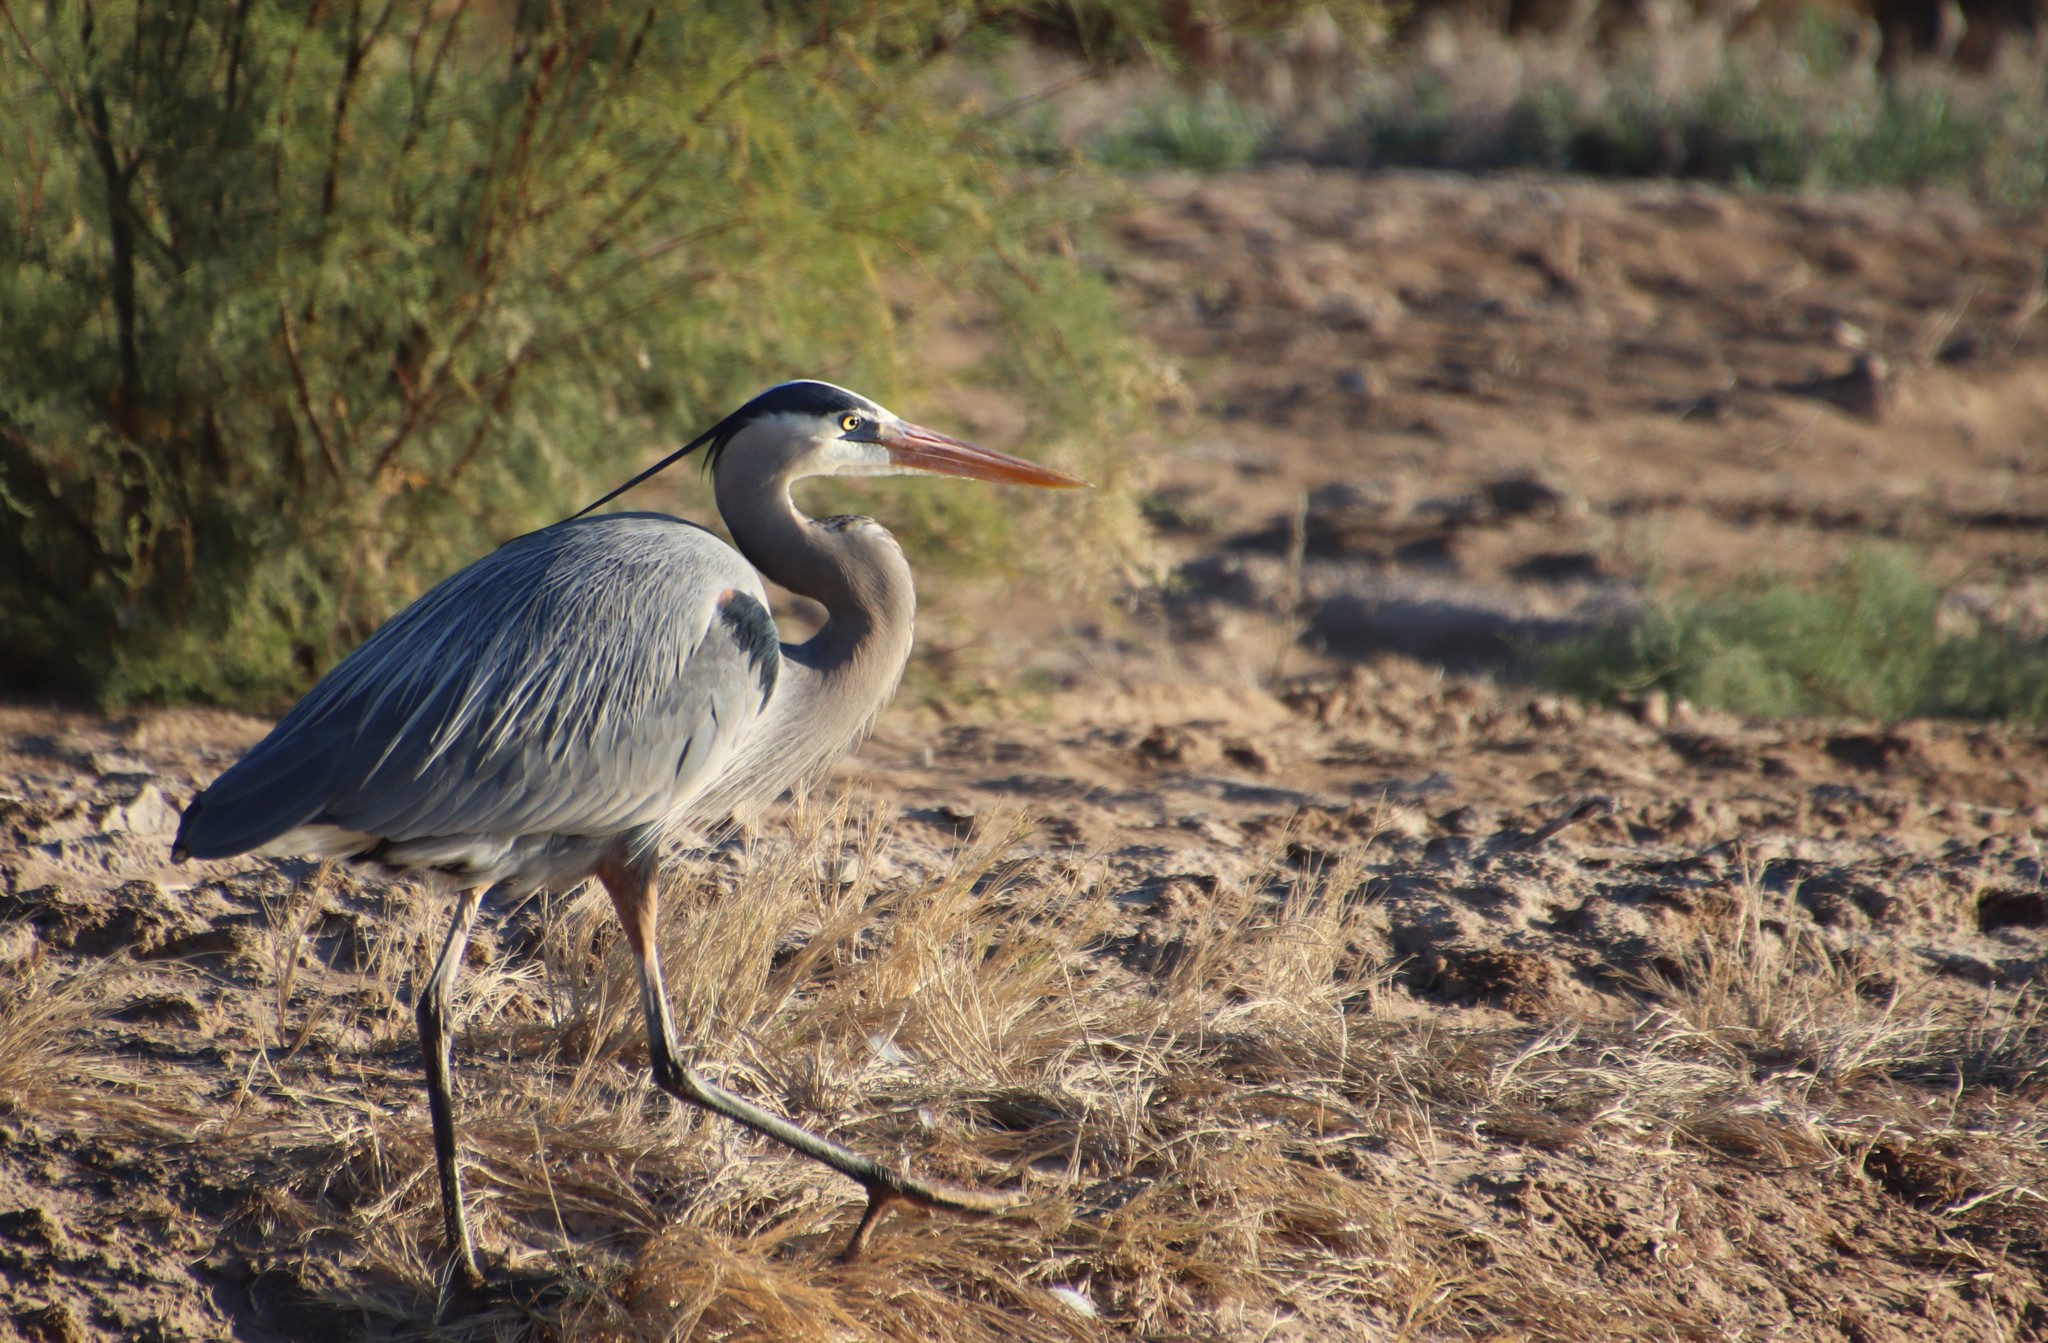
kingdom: Animalia
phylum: Chordata
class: Aves
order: Pelecaniformes
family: Ardeidae
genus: Ardea
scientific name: Ardea herodias
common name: Great blue heron
